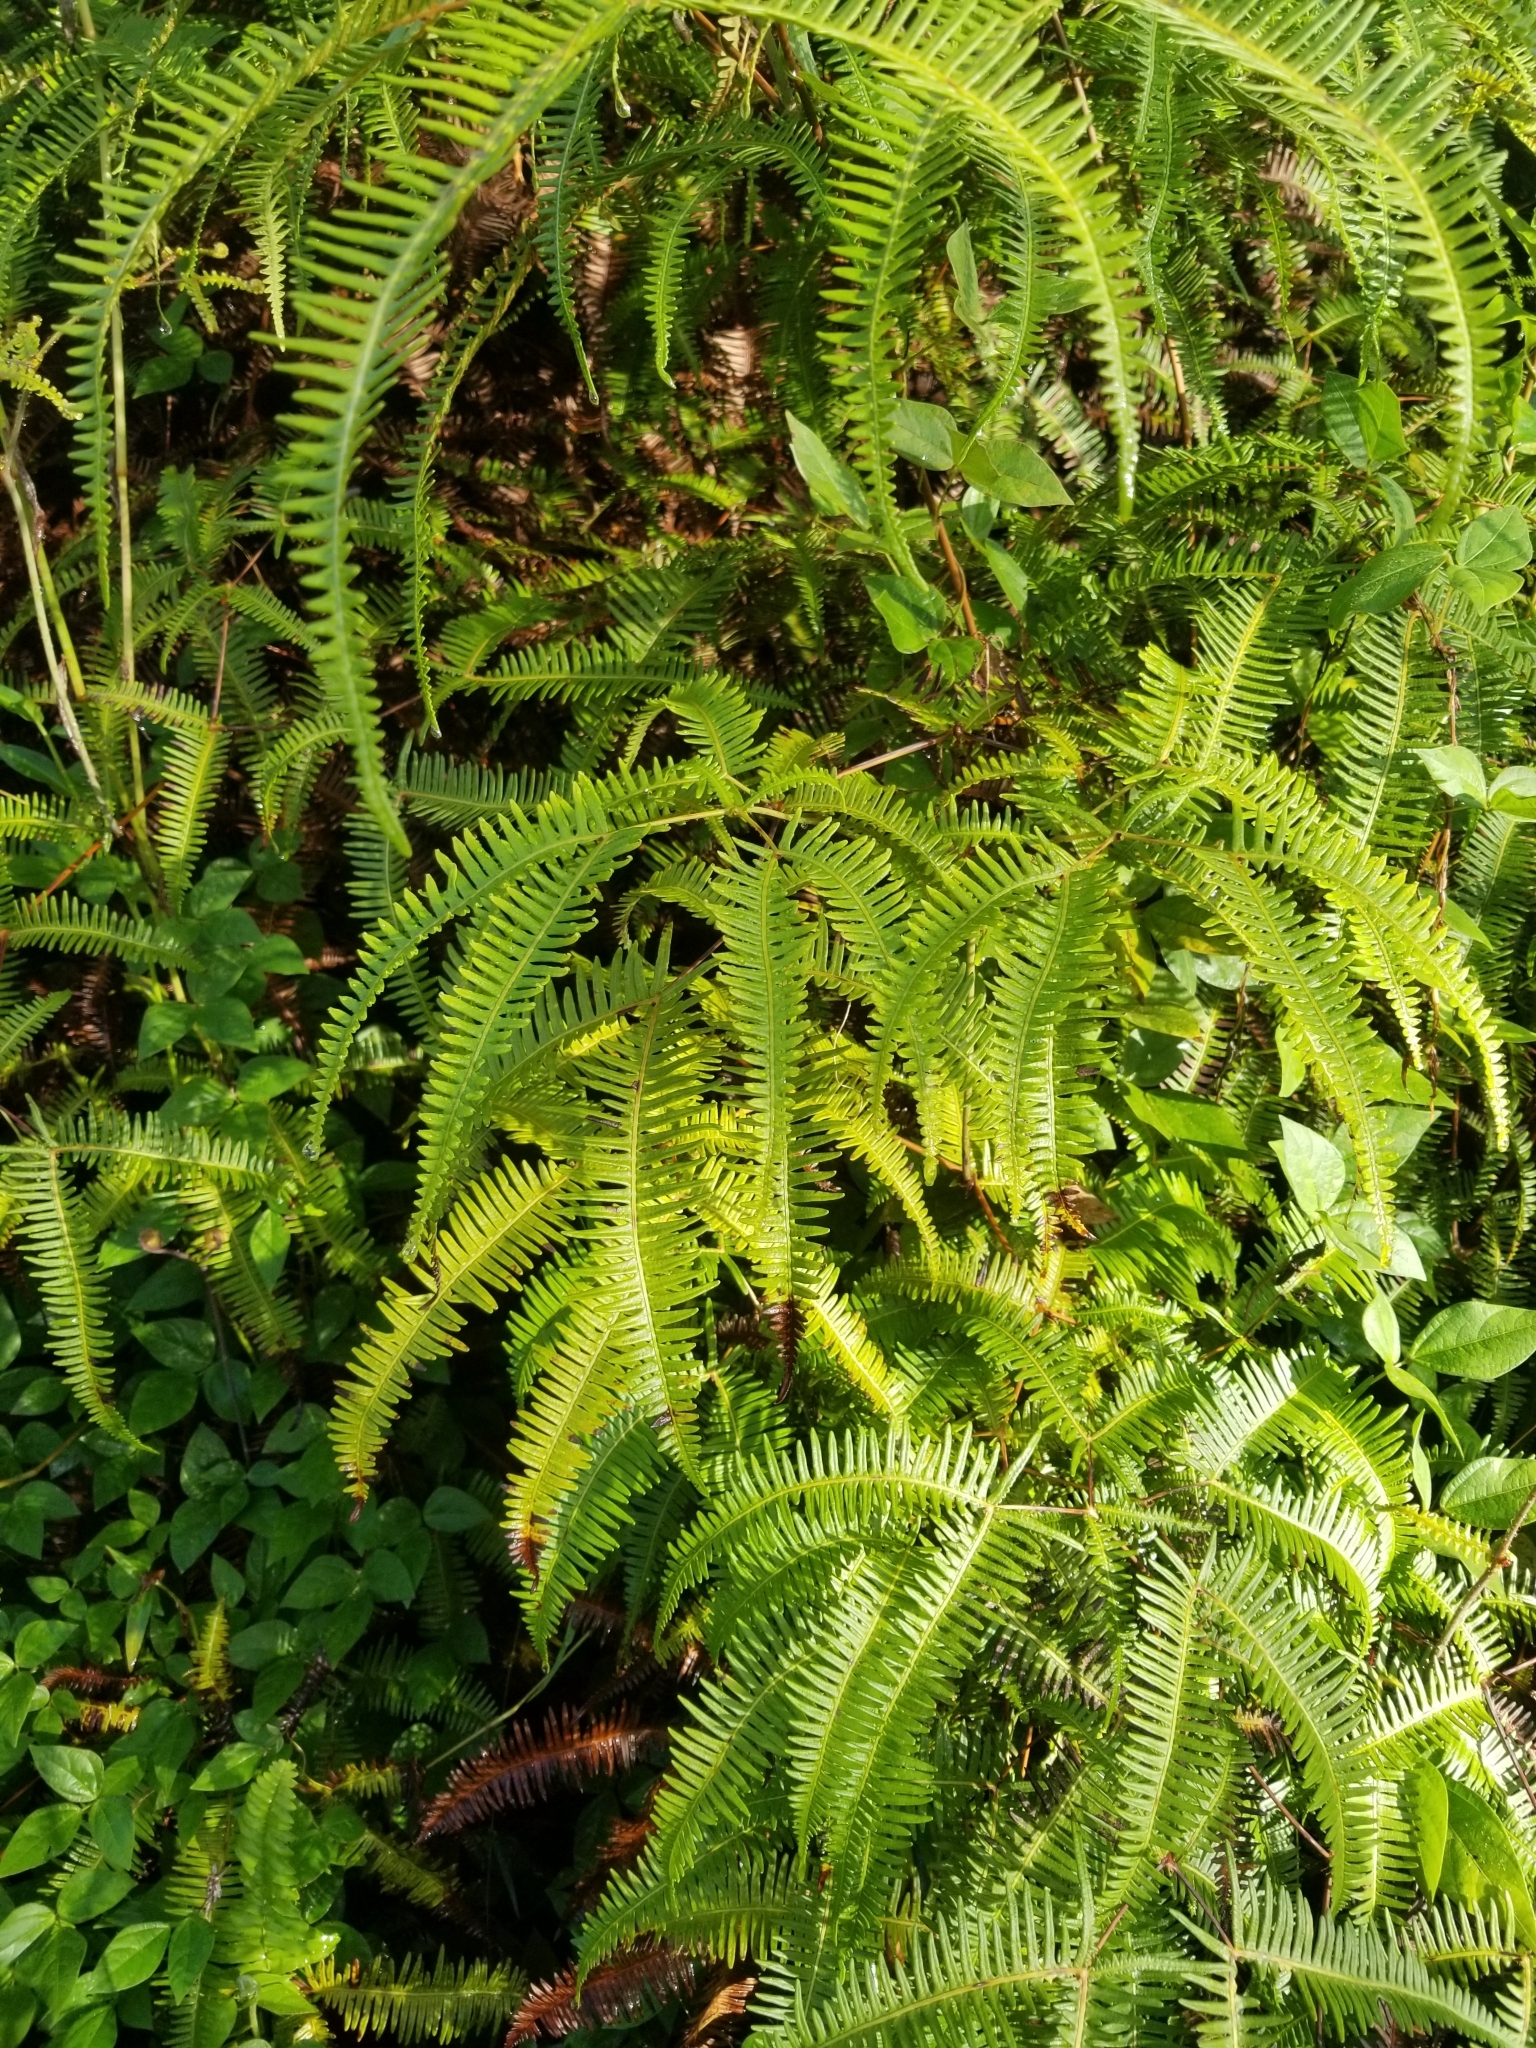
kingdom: Plantae
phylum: Tracheophyta
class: Polypodiopsida
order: Gleicheniales
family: Gleicheniaceae
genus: Dicranopteris
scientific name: Dicranopteris linearis
